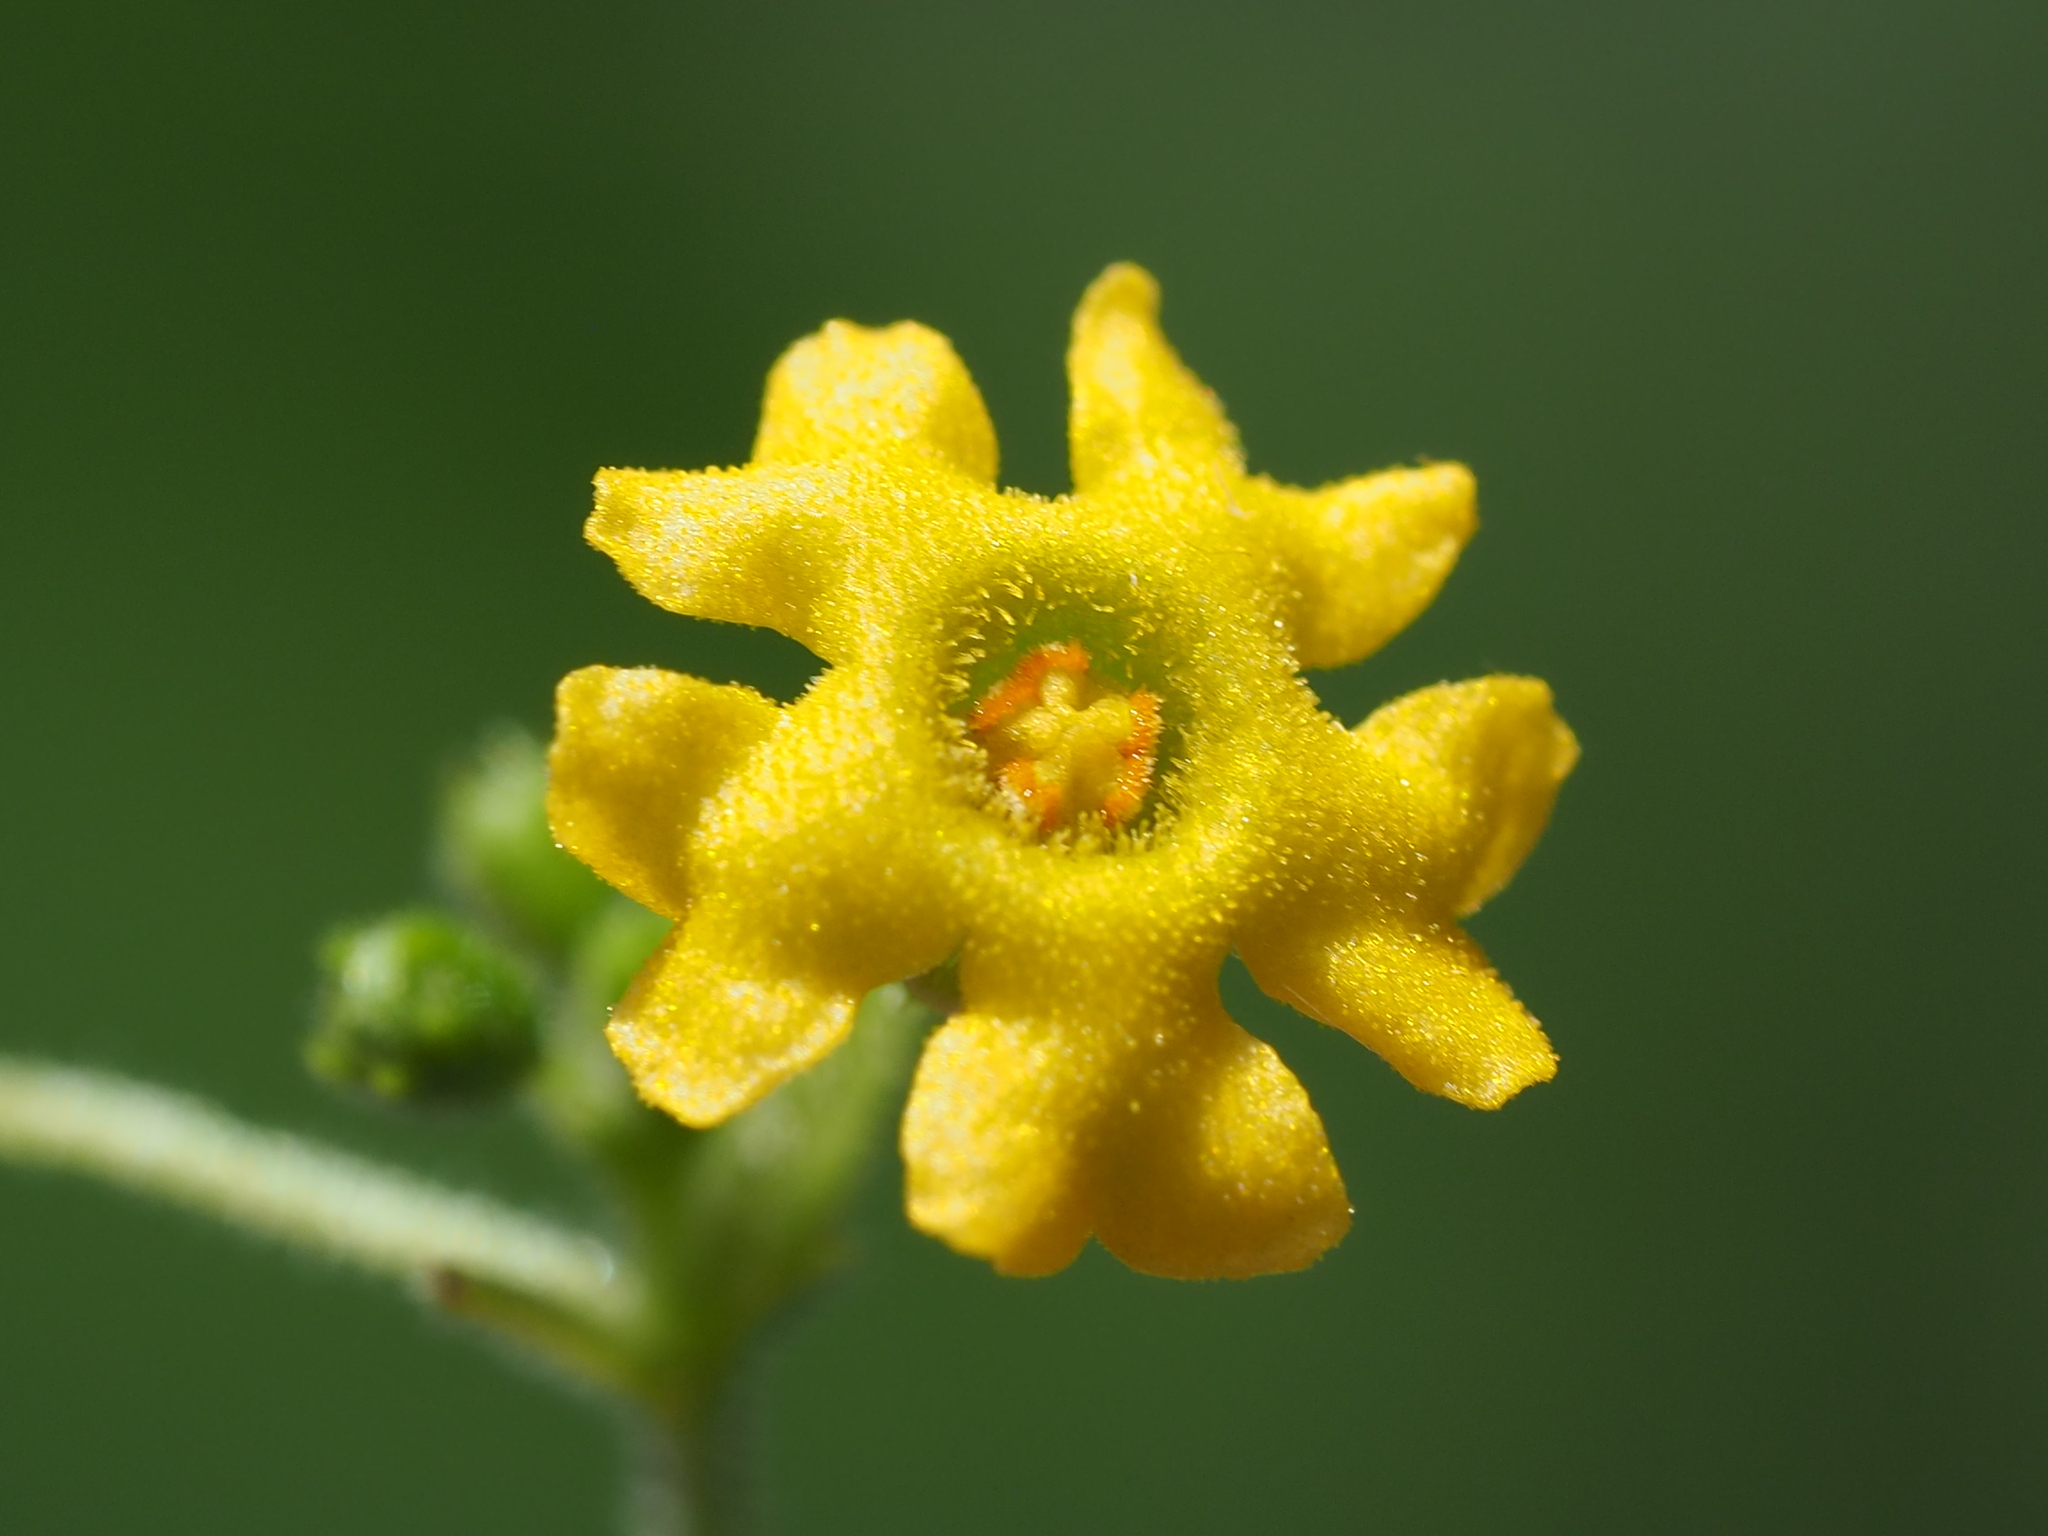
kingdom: Plantae
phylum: Tracheophyta
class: Magnoliopsida
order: Cucurbitales
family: Cucurbitaceae
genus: Melothria
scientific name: Melothria pendula
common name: Creeping-cucumber
